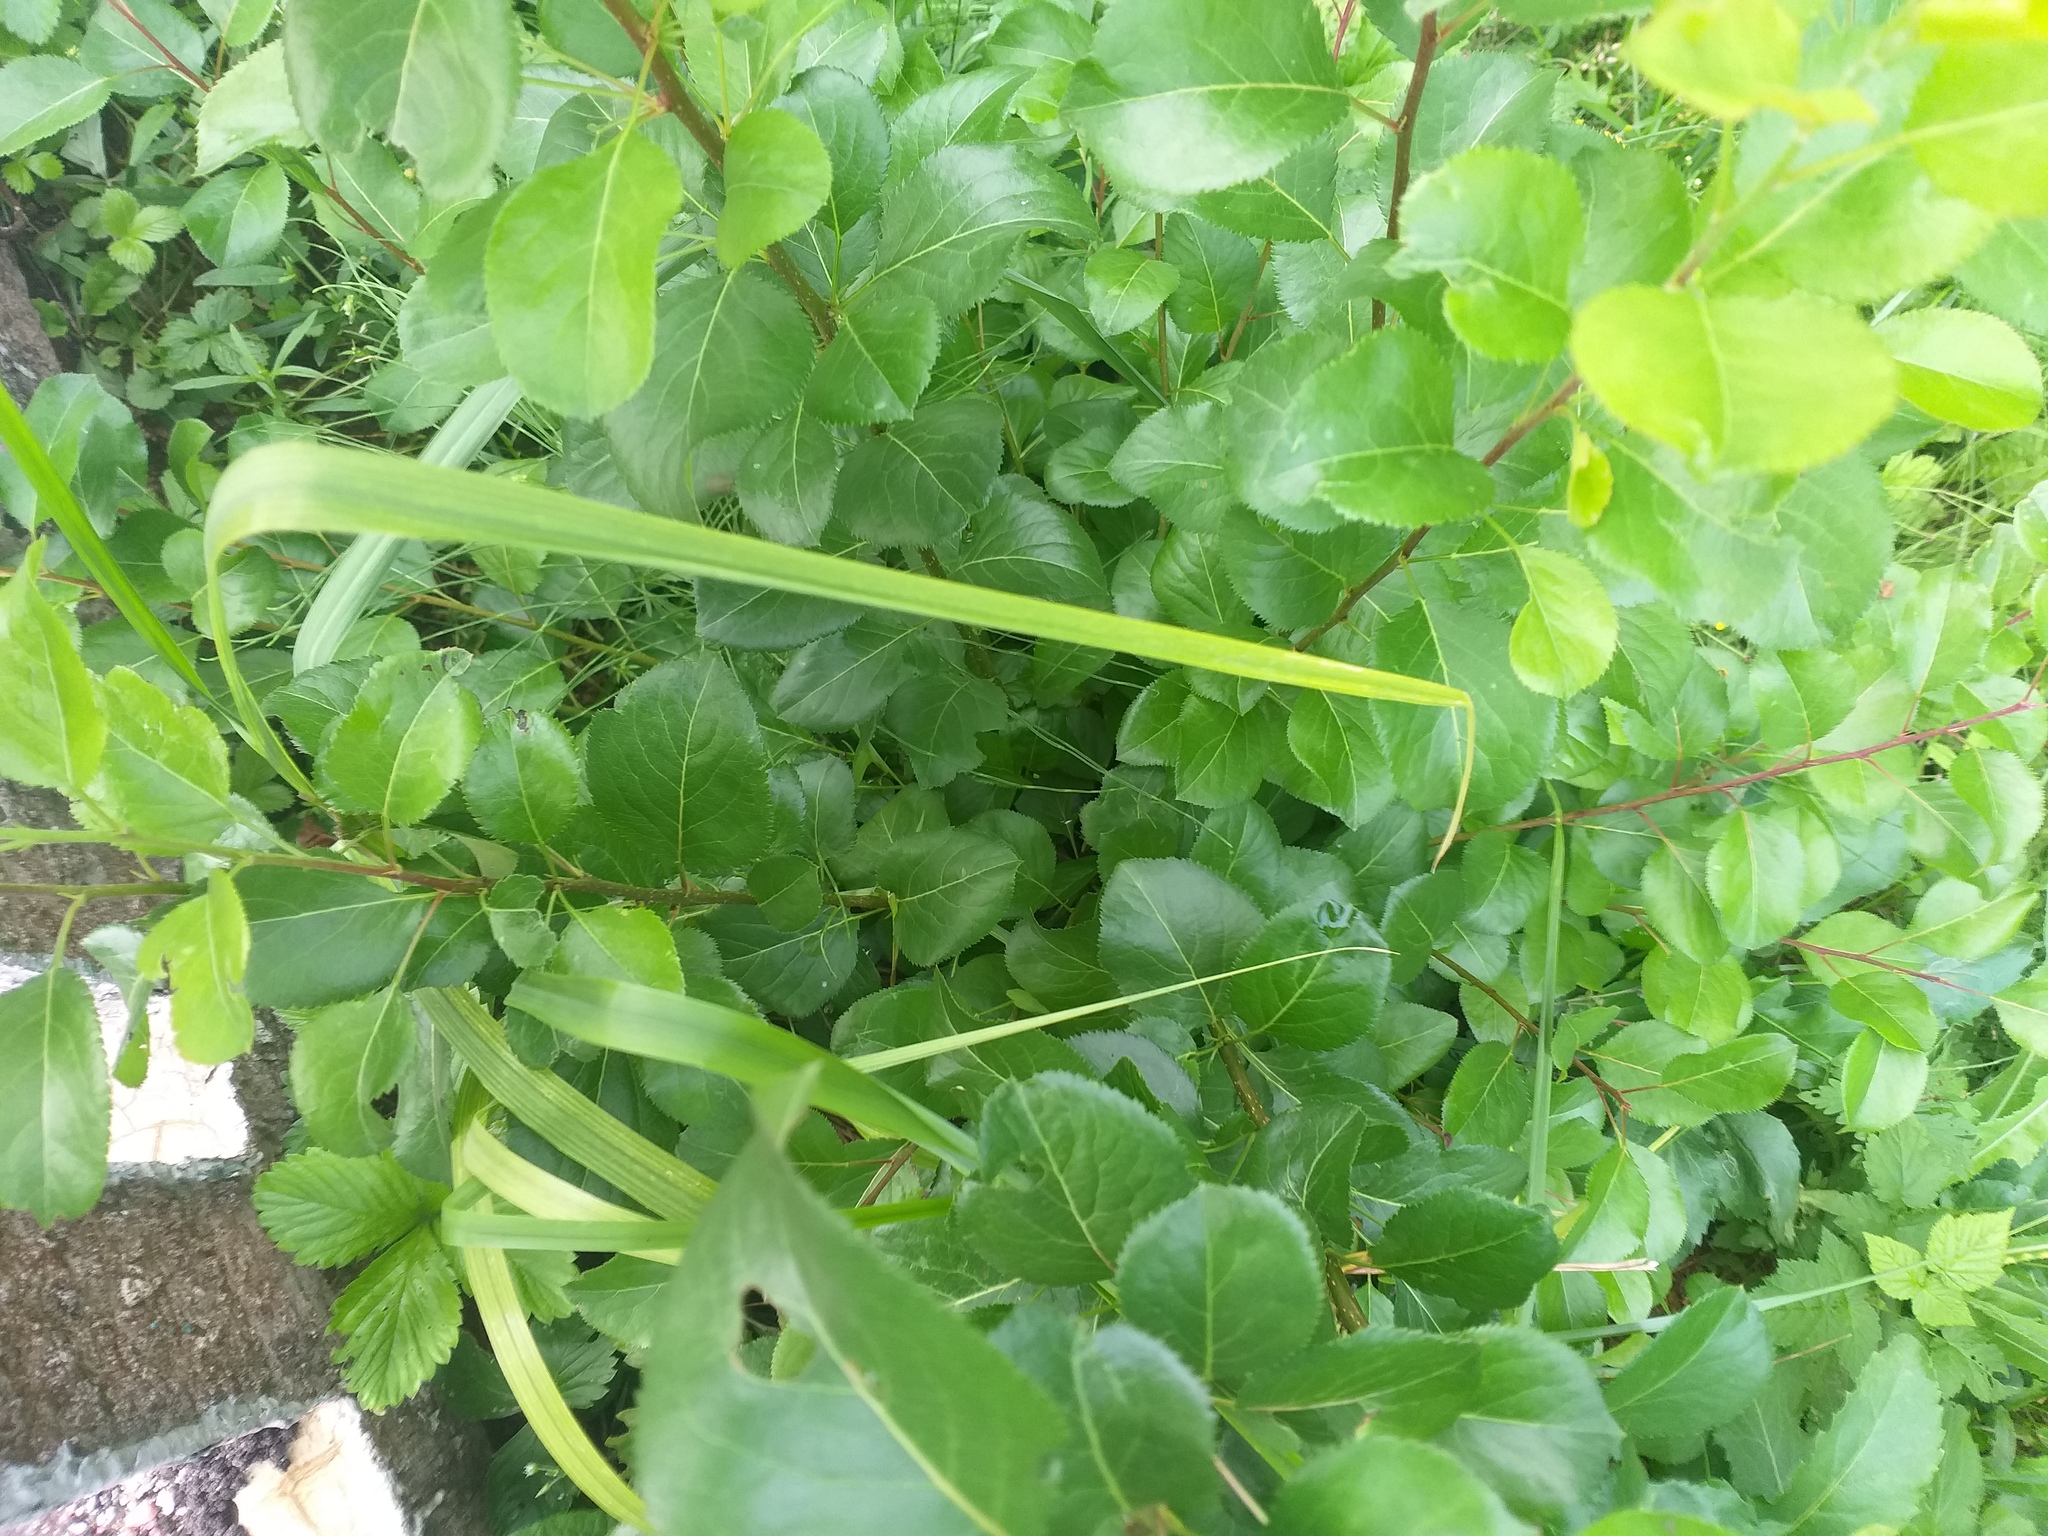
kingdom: Plantae
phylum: Tracheophyta
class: Magnoliopsida
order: Rosales
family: Rosaceae
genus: Pyrus
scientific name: Pyrus communis
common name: Pear
